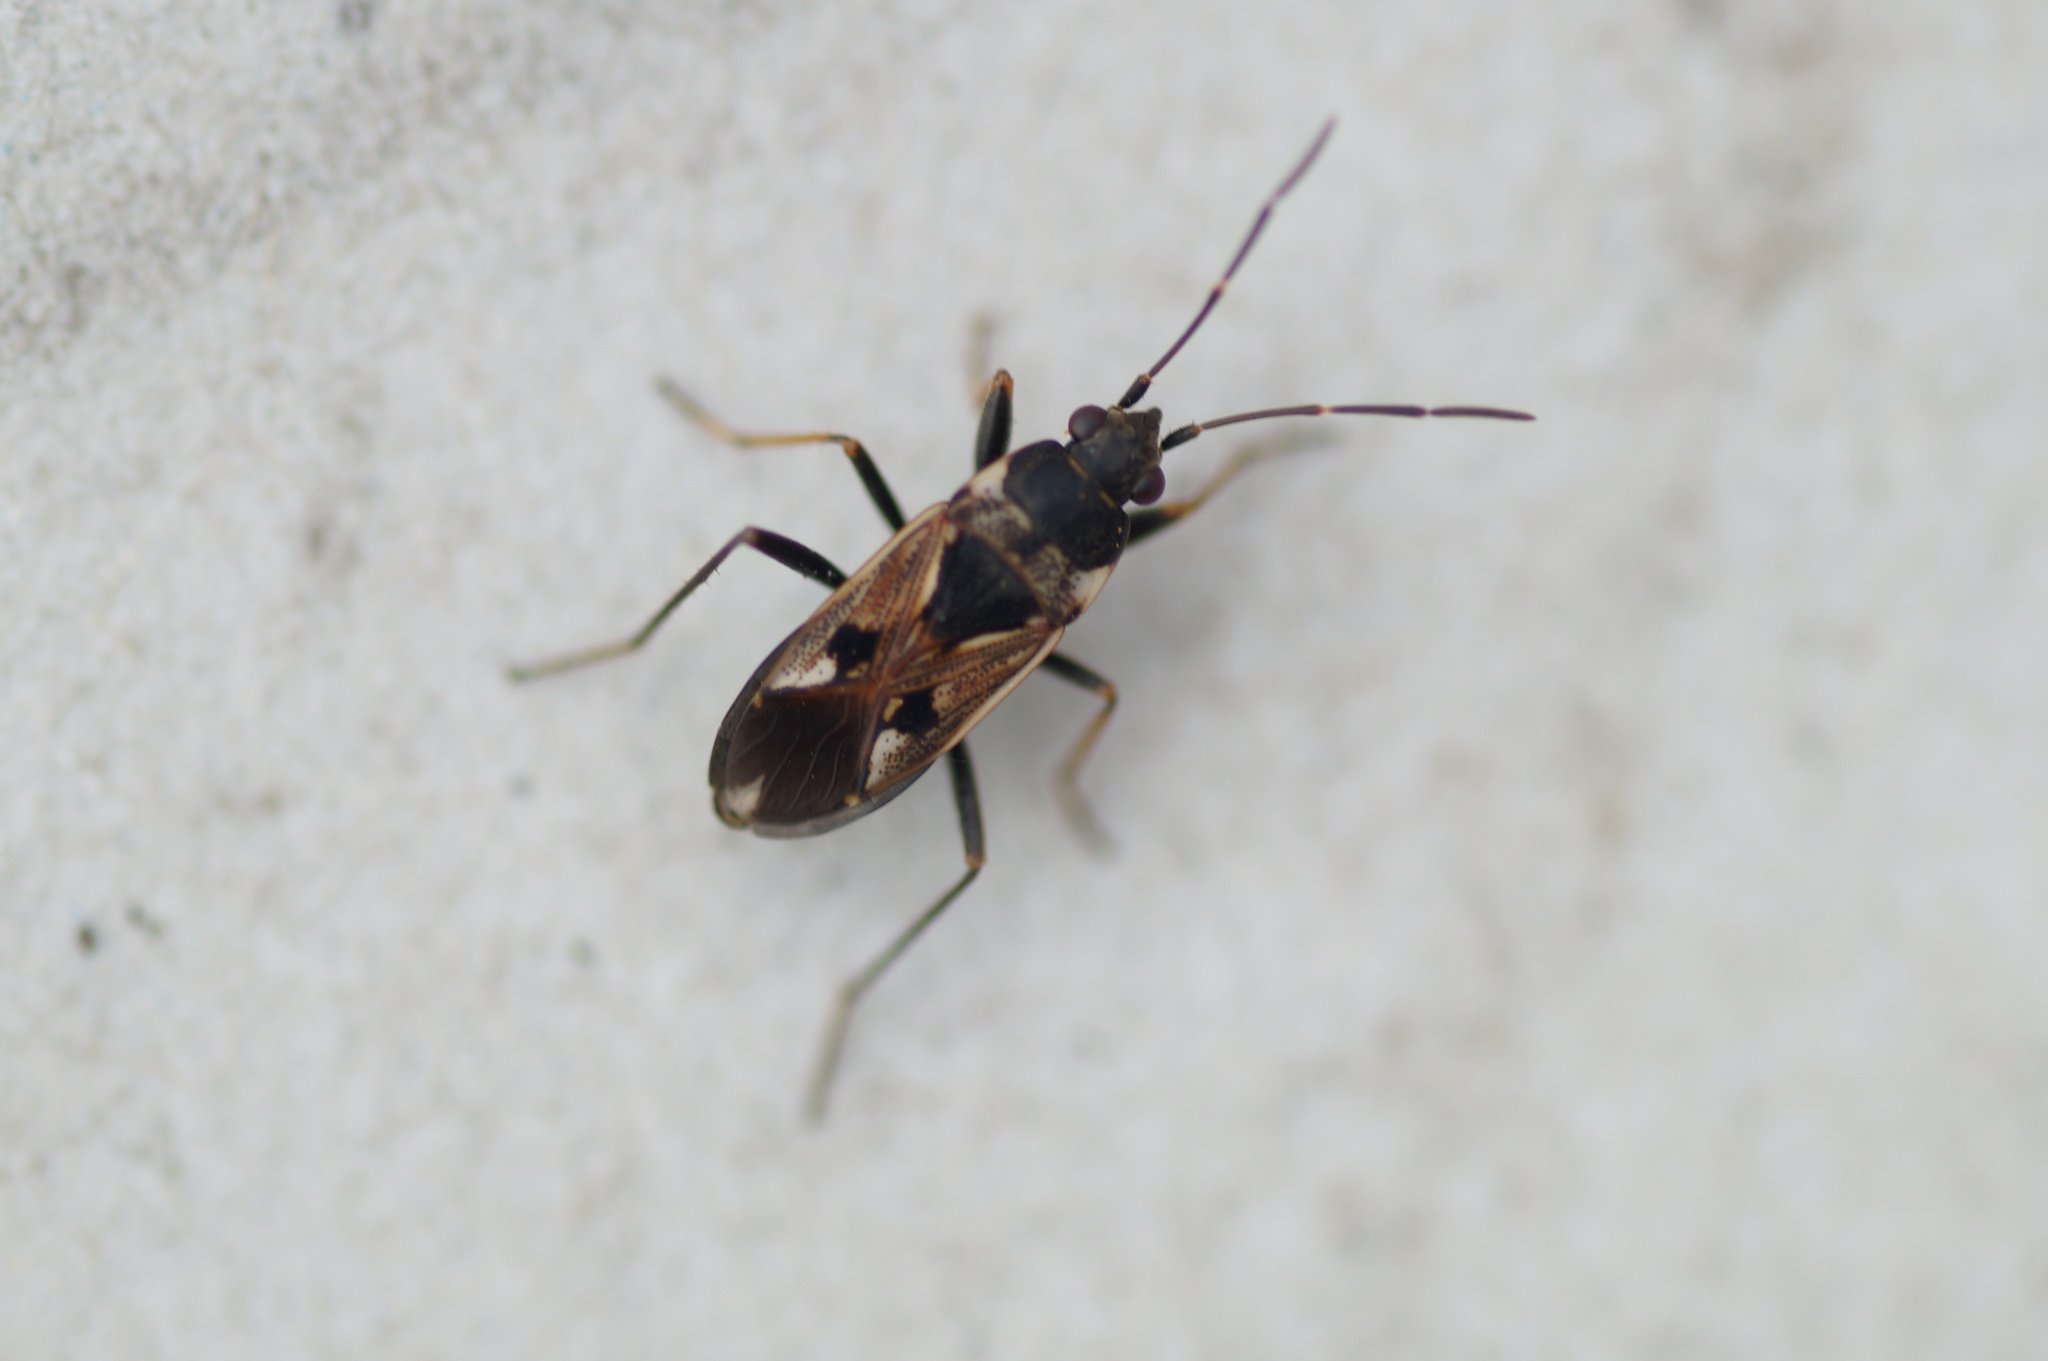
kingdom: Animalia
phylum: Arthropoda
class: Insecta
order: Hemiptera
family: Rhyparochromidae
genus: Rhyparochromus
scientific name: Rhyparochromus vulgaris
